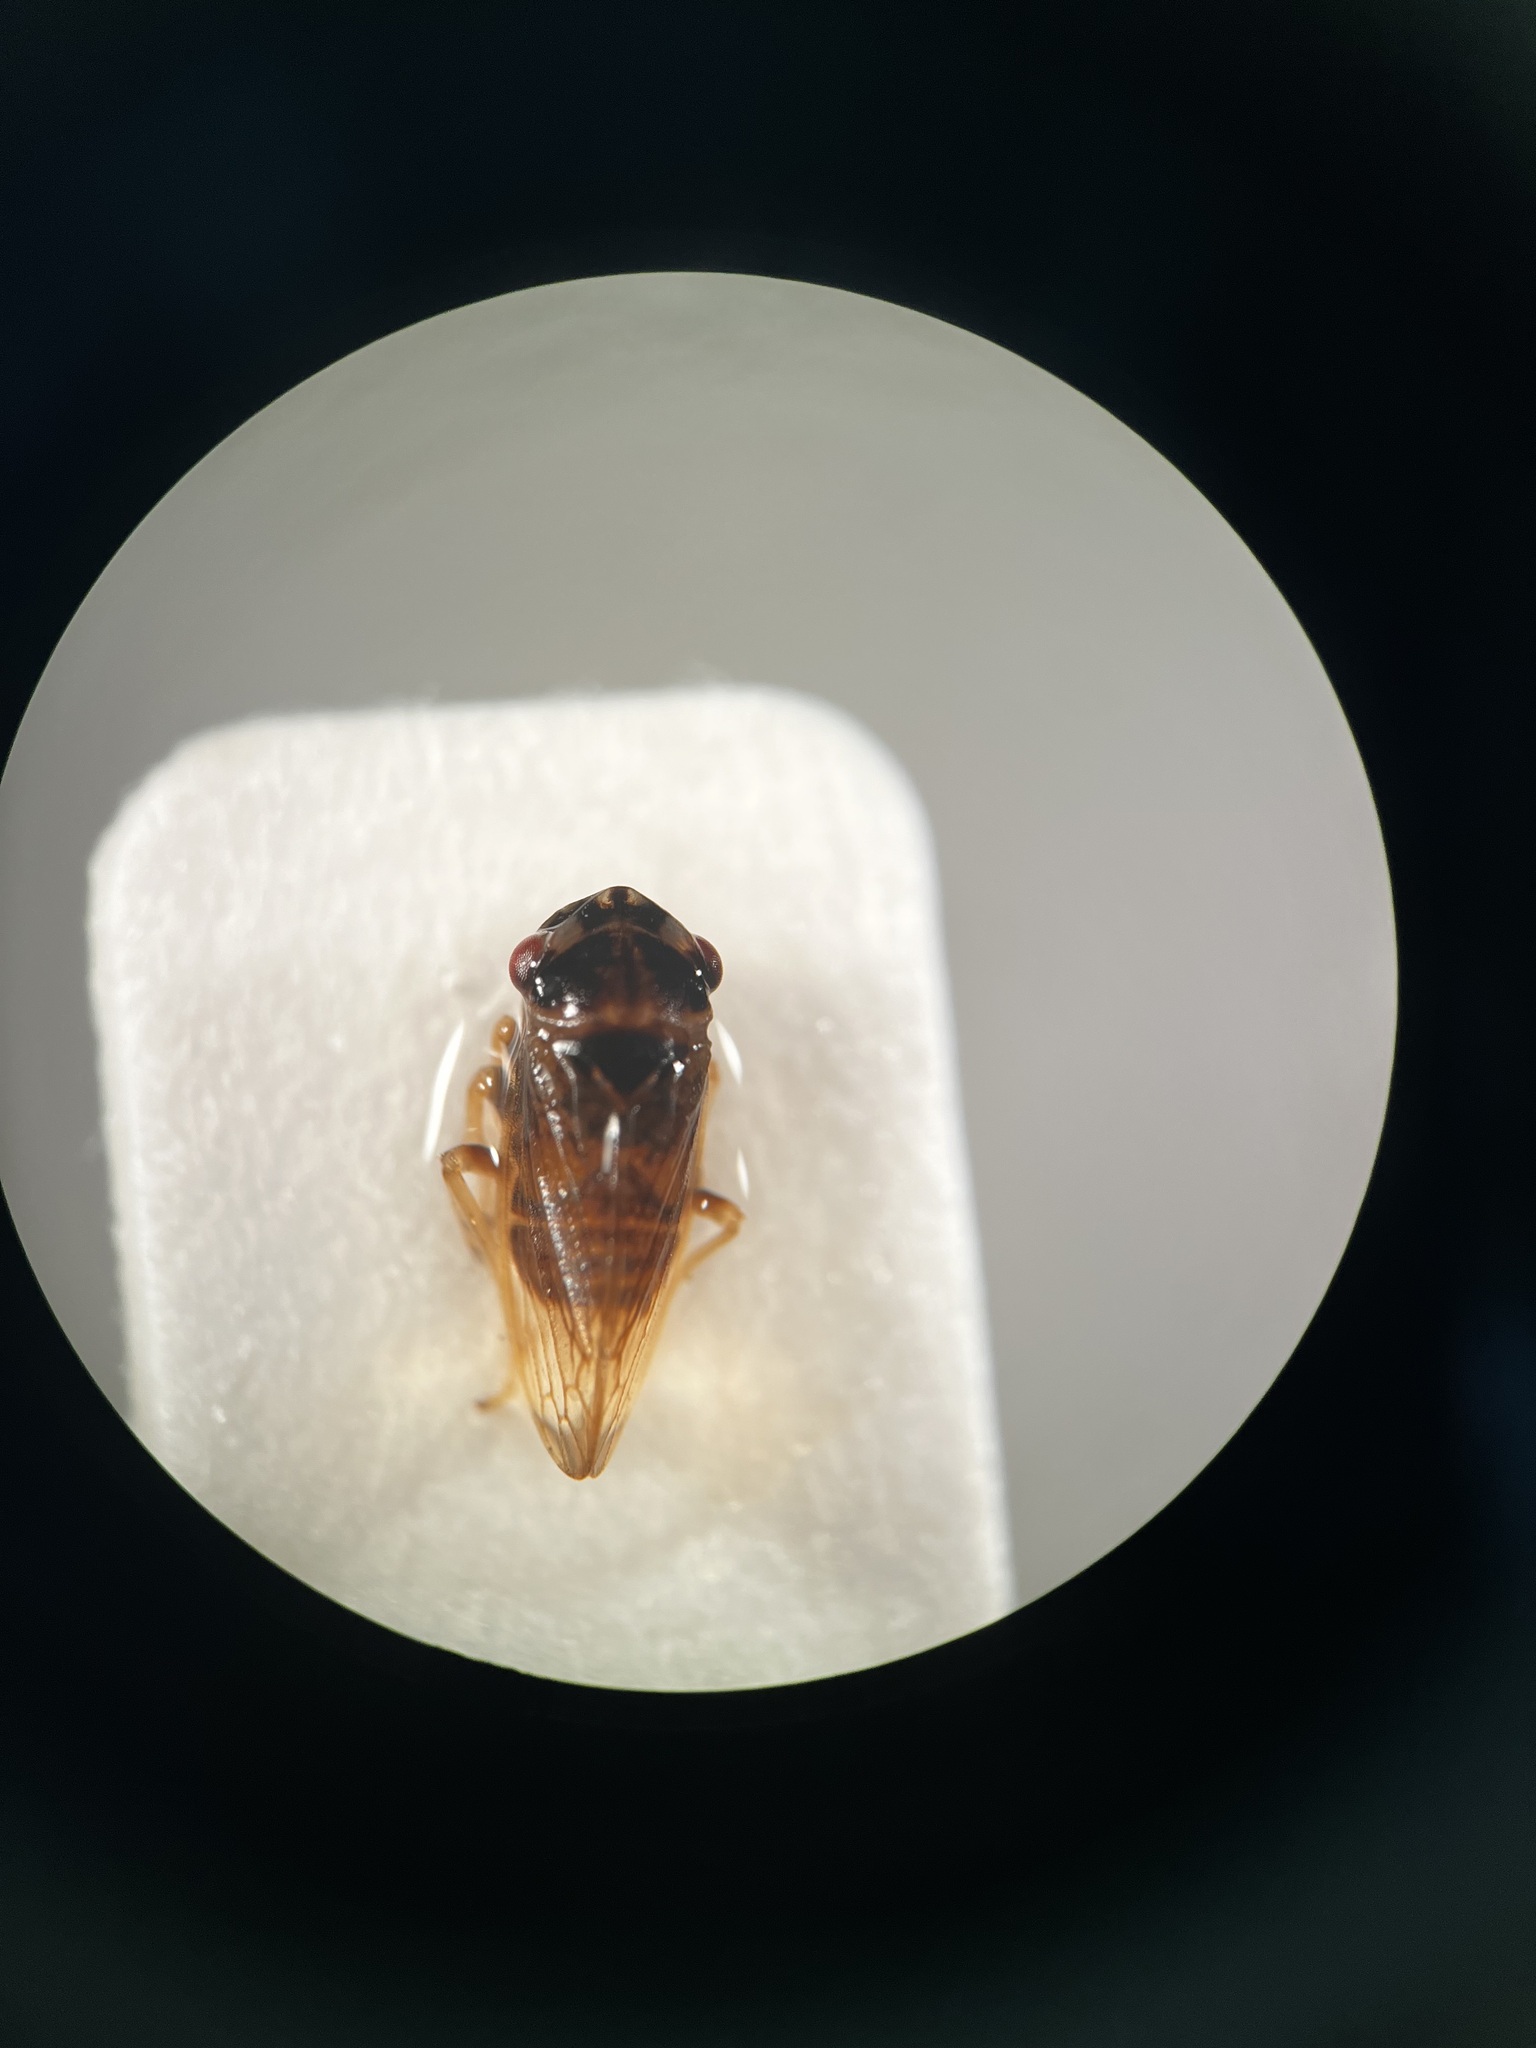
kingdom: Animalia
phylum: Arthropoda
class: Insecta
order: Hemiptera
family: Cicadellidae
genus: Megophthalmus
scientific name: Megophthalmus scanicus
